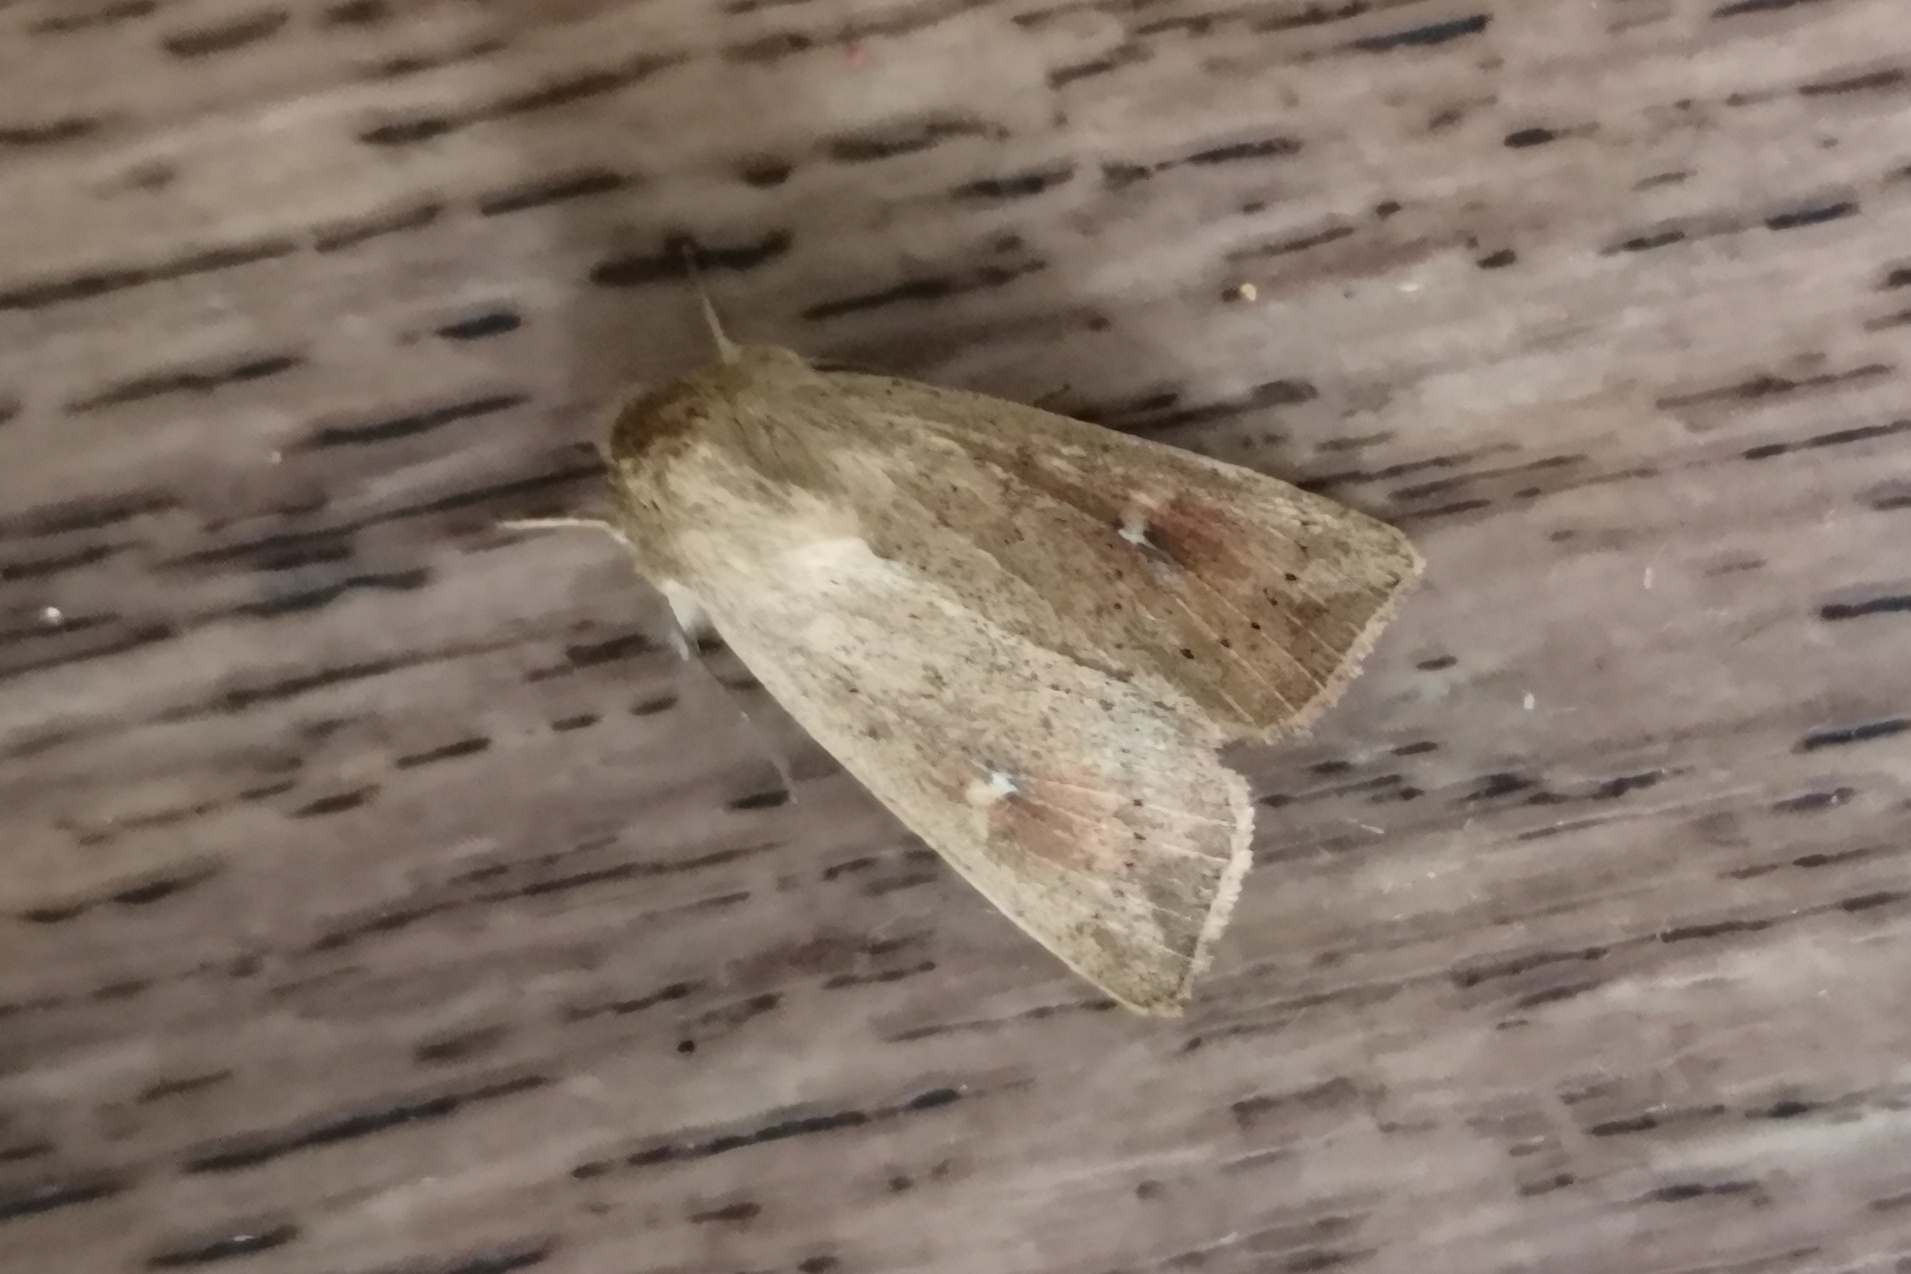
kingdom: Animalia
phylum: Arthropoda
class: Insecta
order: Lepidoptera
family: Noctuidae
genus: Mythimna
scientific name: Mythimna ferrago
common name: Clay
